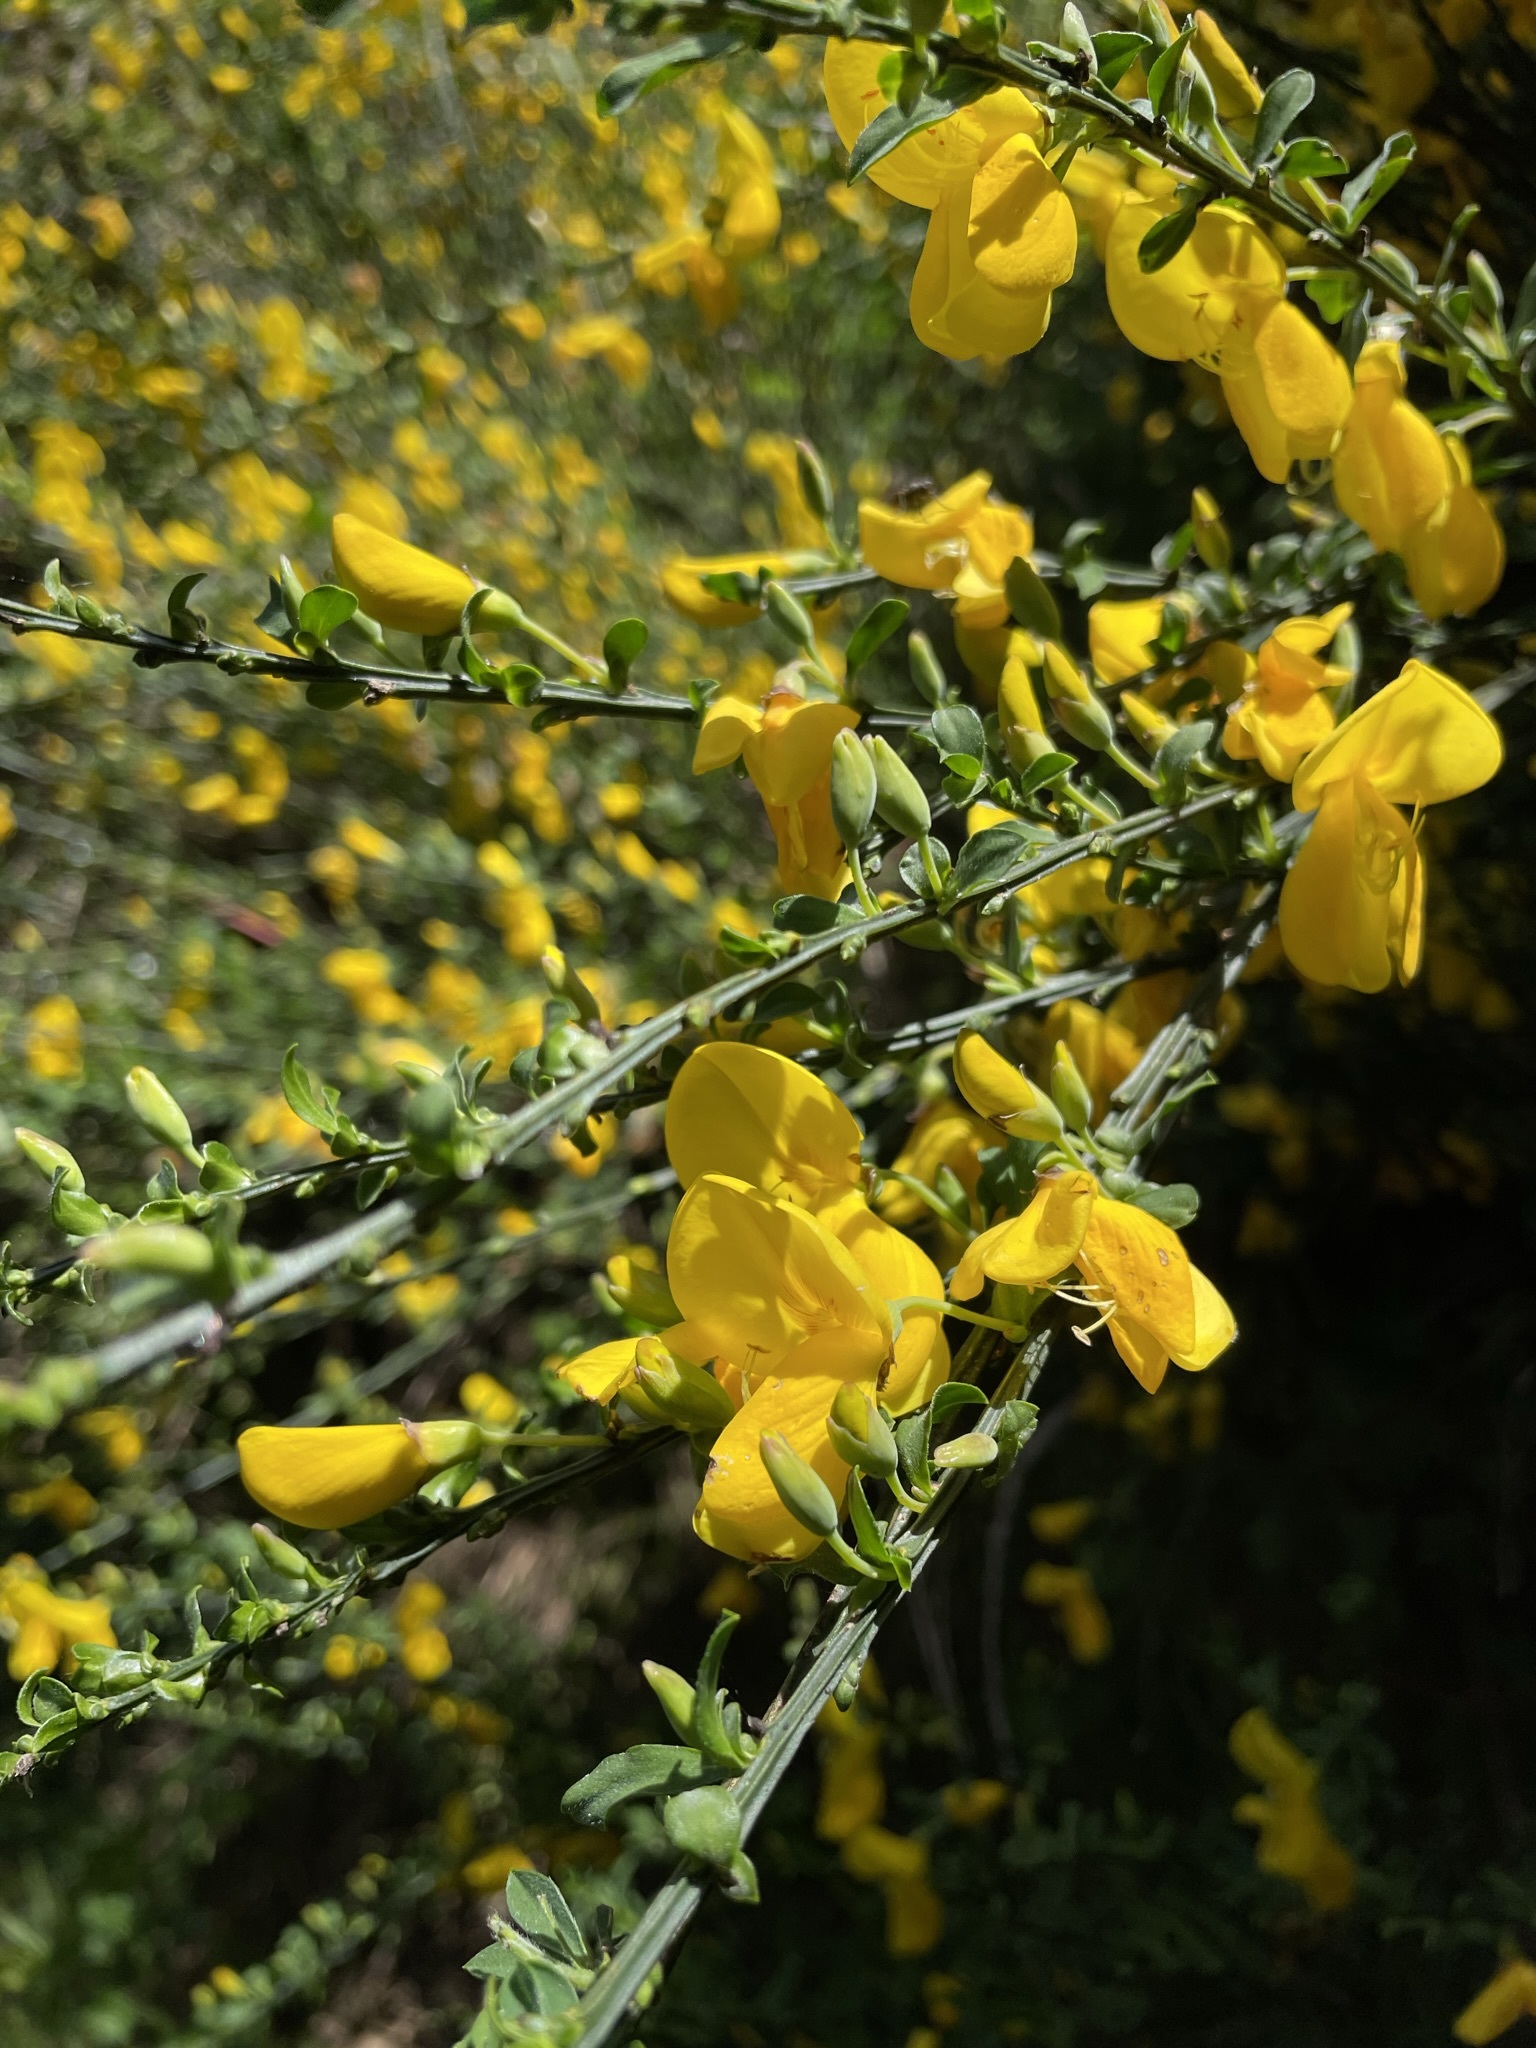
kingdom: Plantae
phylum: Tracheophyta
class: Magnoliopsida
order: Fabales
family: Fabaceae
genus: Cytisus
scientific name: Cytisus scoparius
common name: Scotch broom
